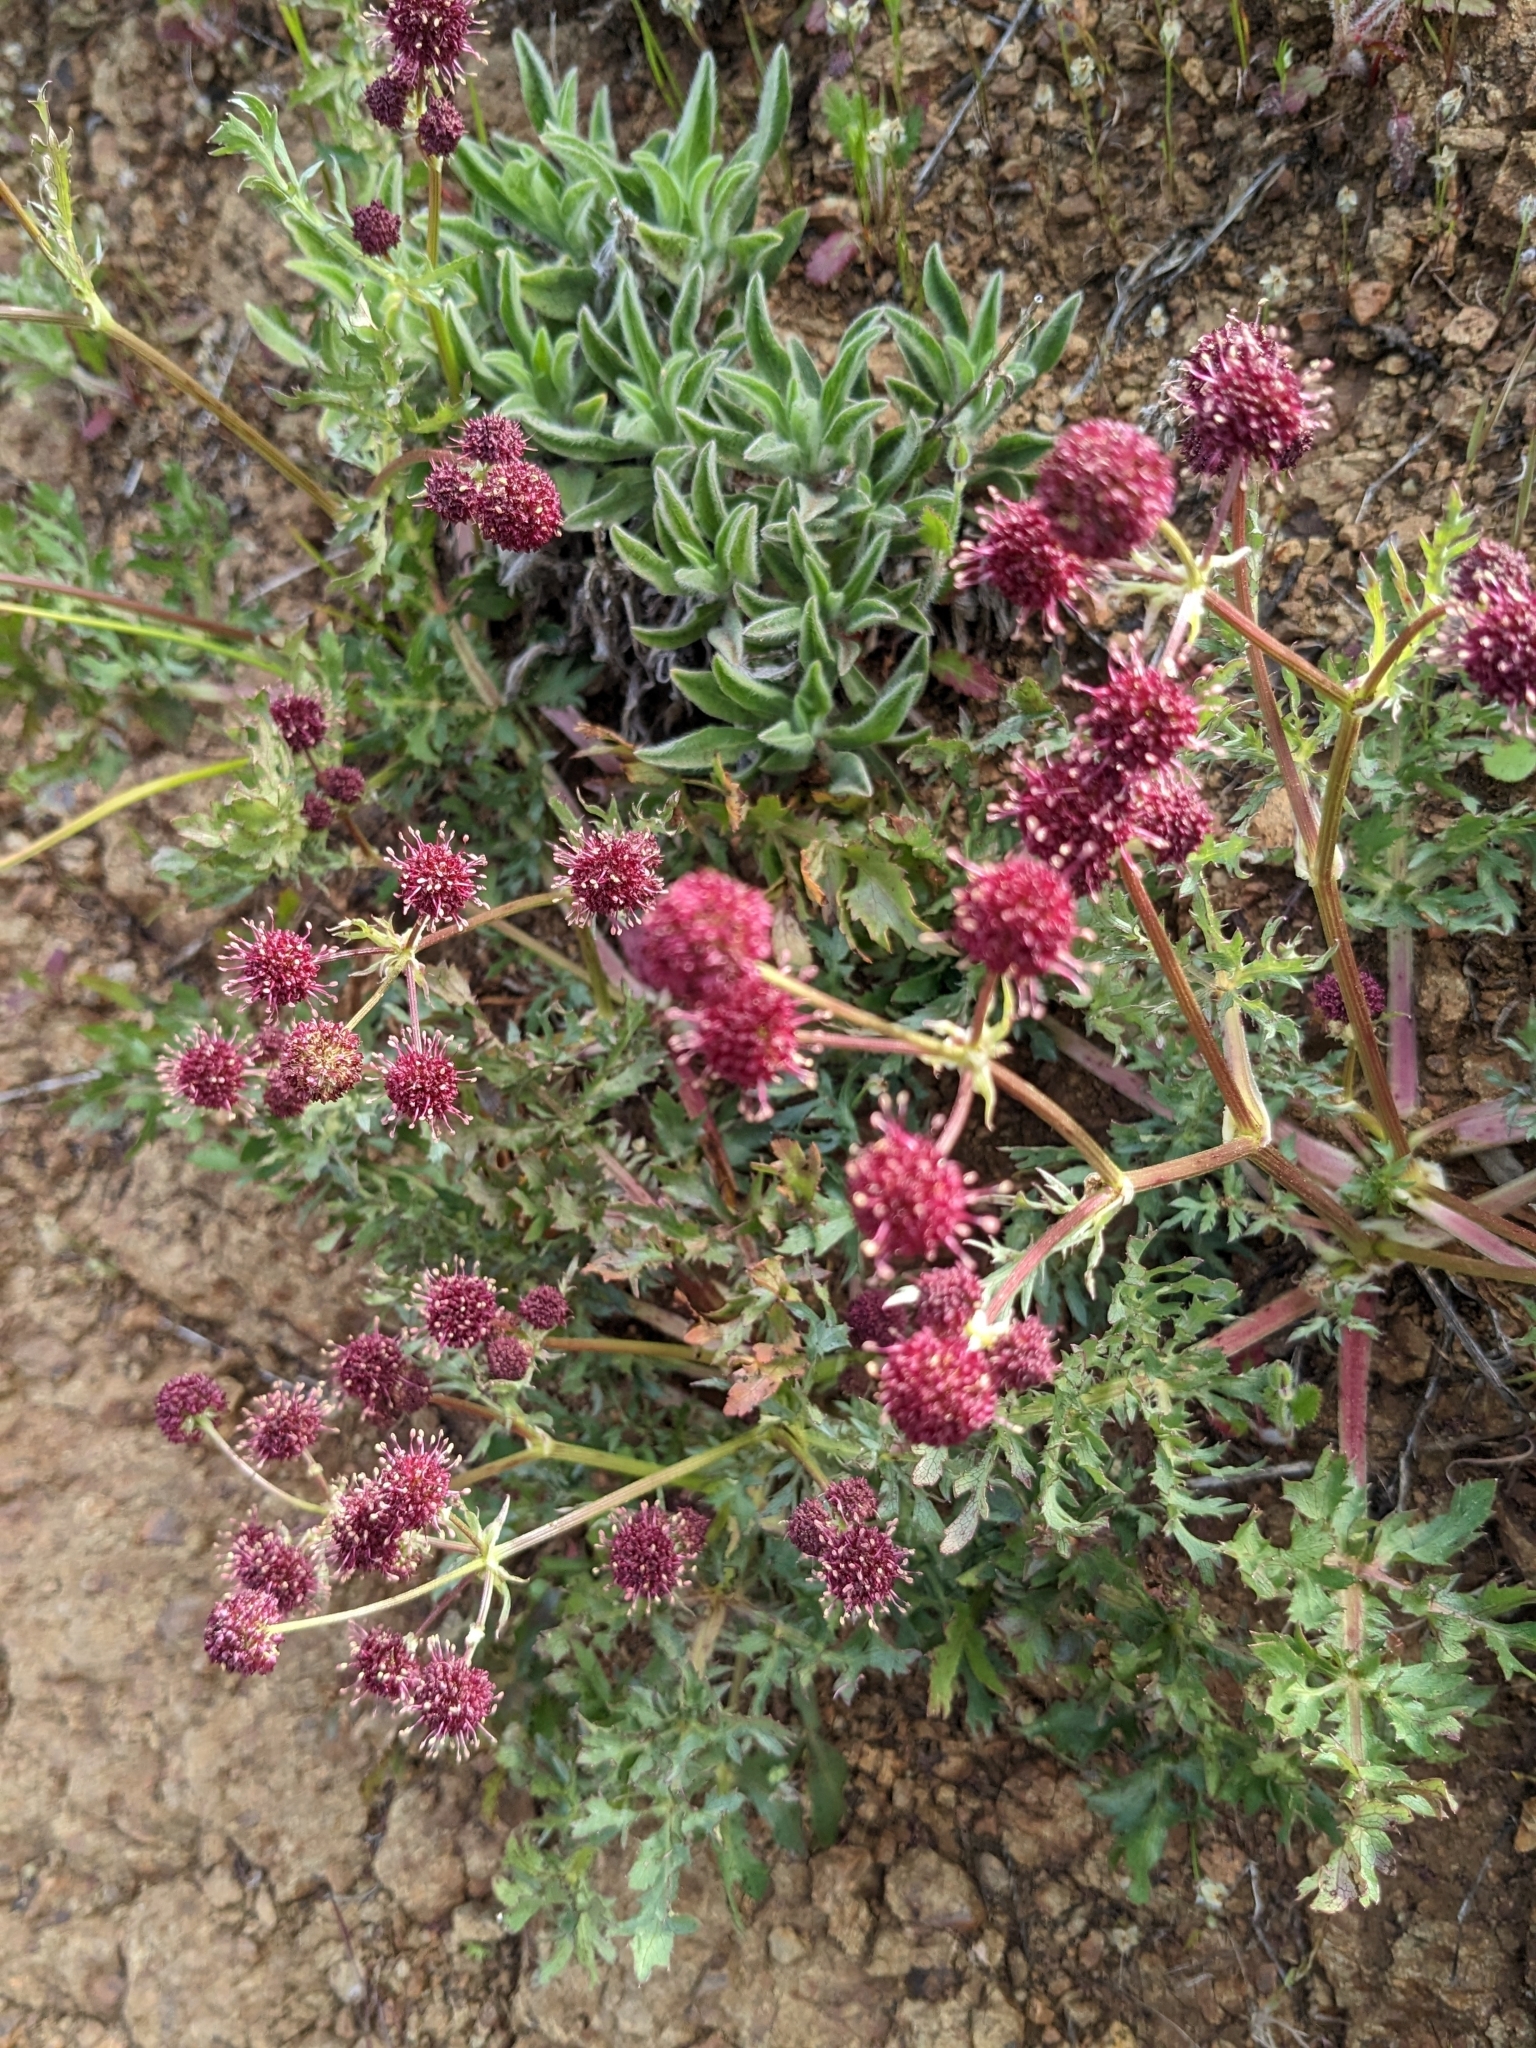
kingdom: Plantae
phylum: Tracheophyta
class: Magnoliopsida
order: Apiales
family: Apiaceae
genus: Sanicula
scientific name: Sanicula bipinnatifida
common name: Shoe-buttons
